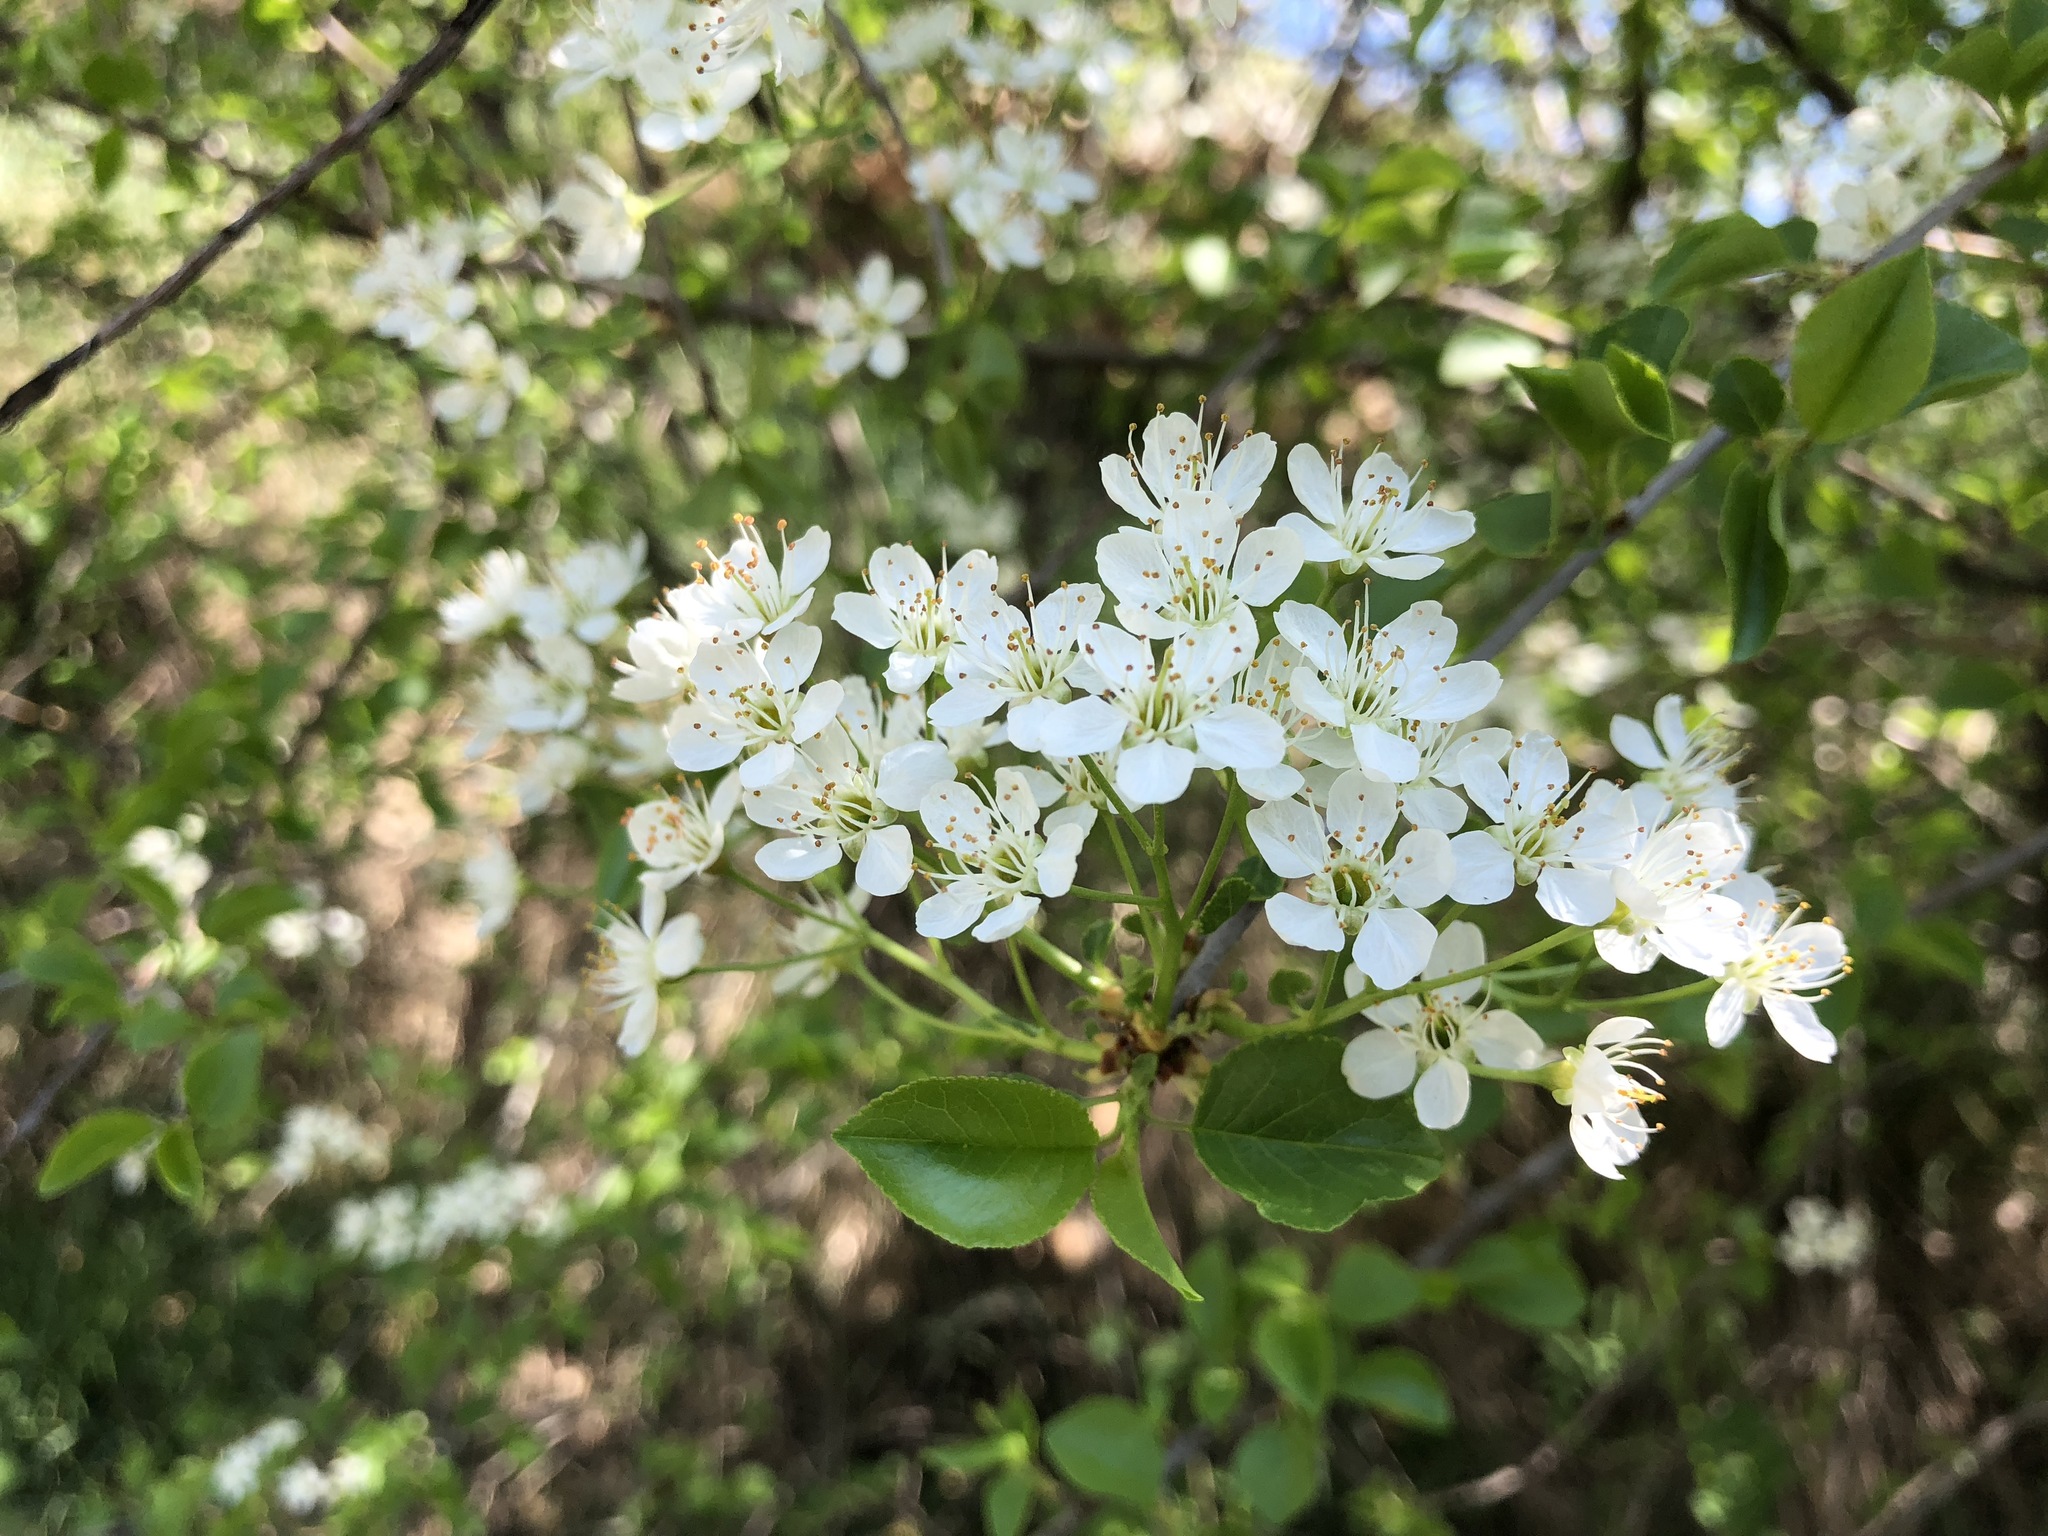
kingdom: Plantae
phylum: Tracheophyta
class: Magnoliopsida
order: Rosales
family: Rosaceae
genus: Prunus
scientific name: Prunus mahaleb
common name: Mahaleb cherry
